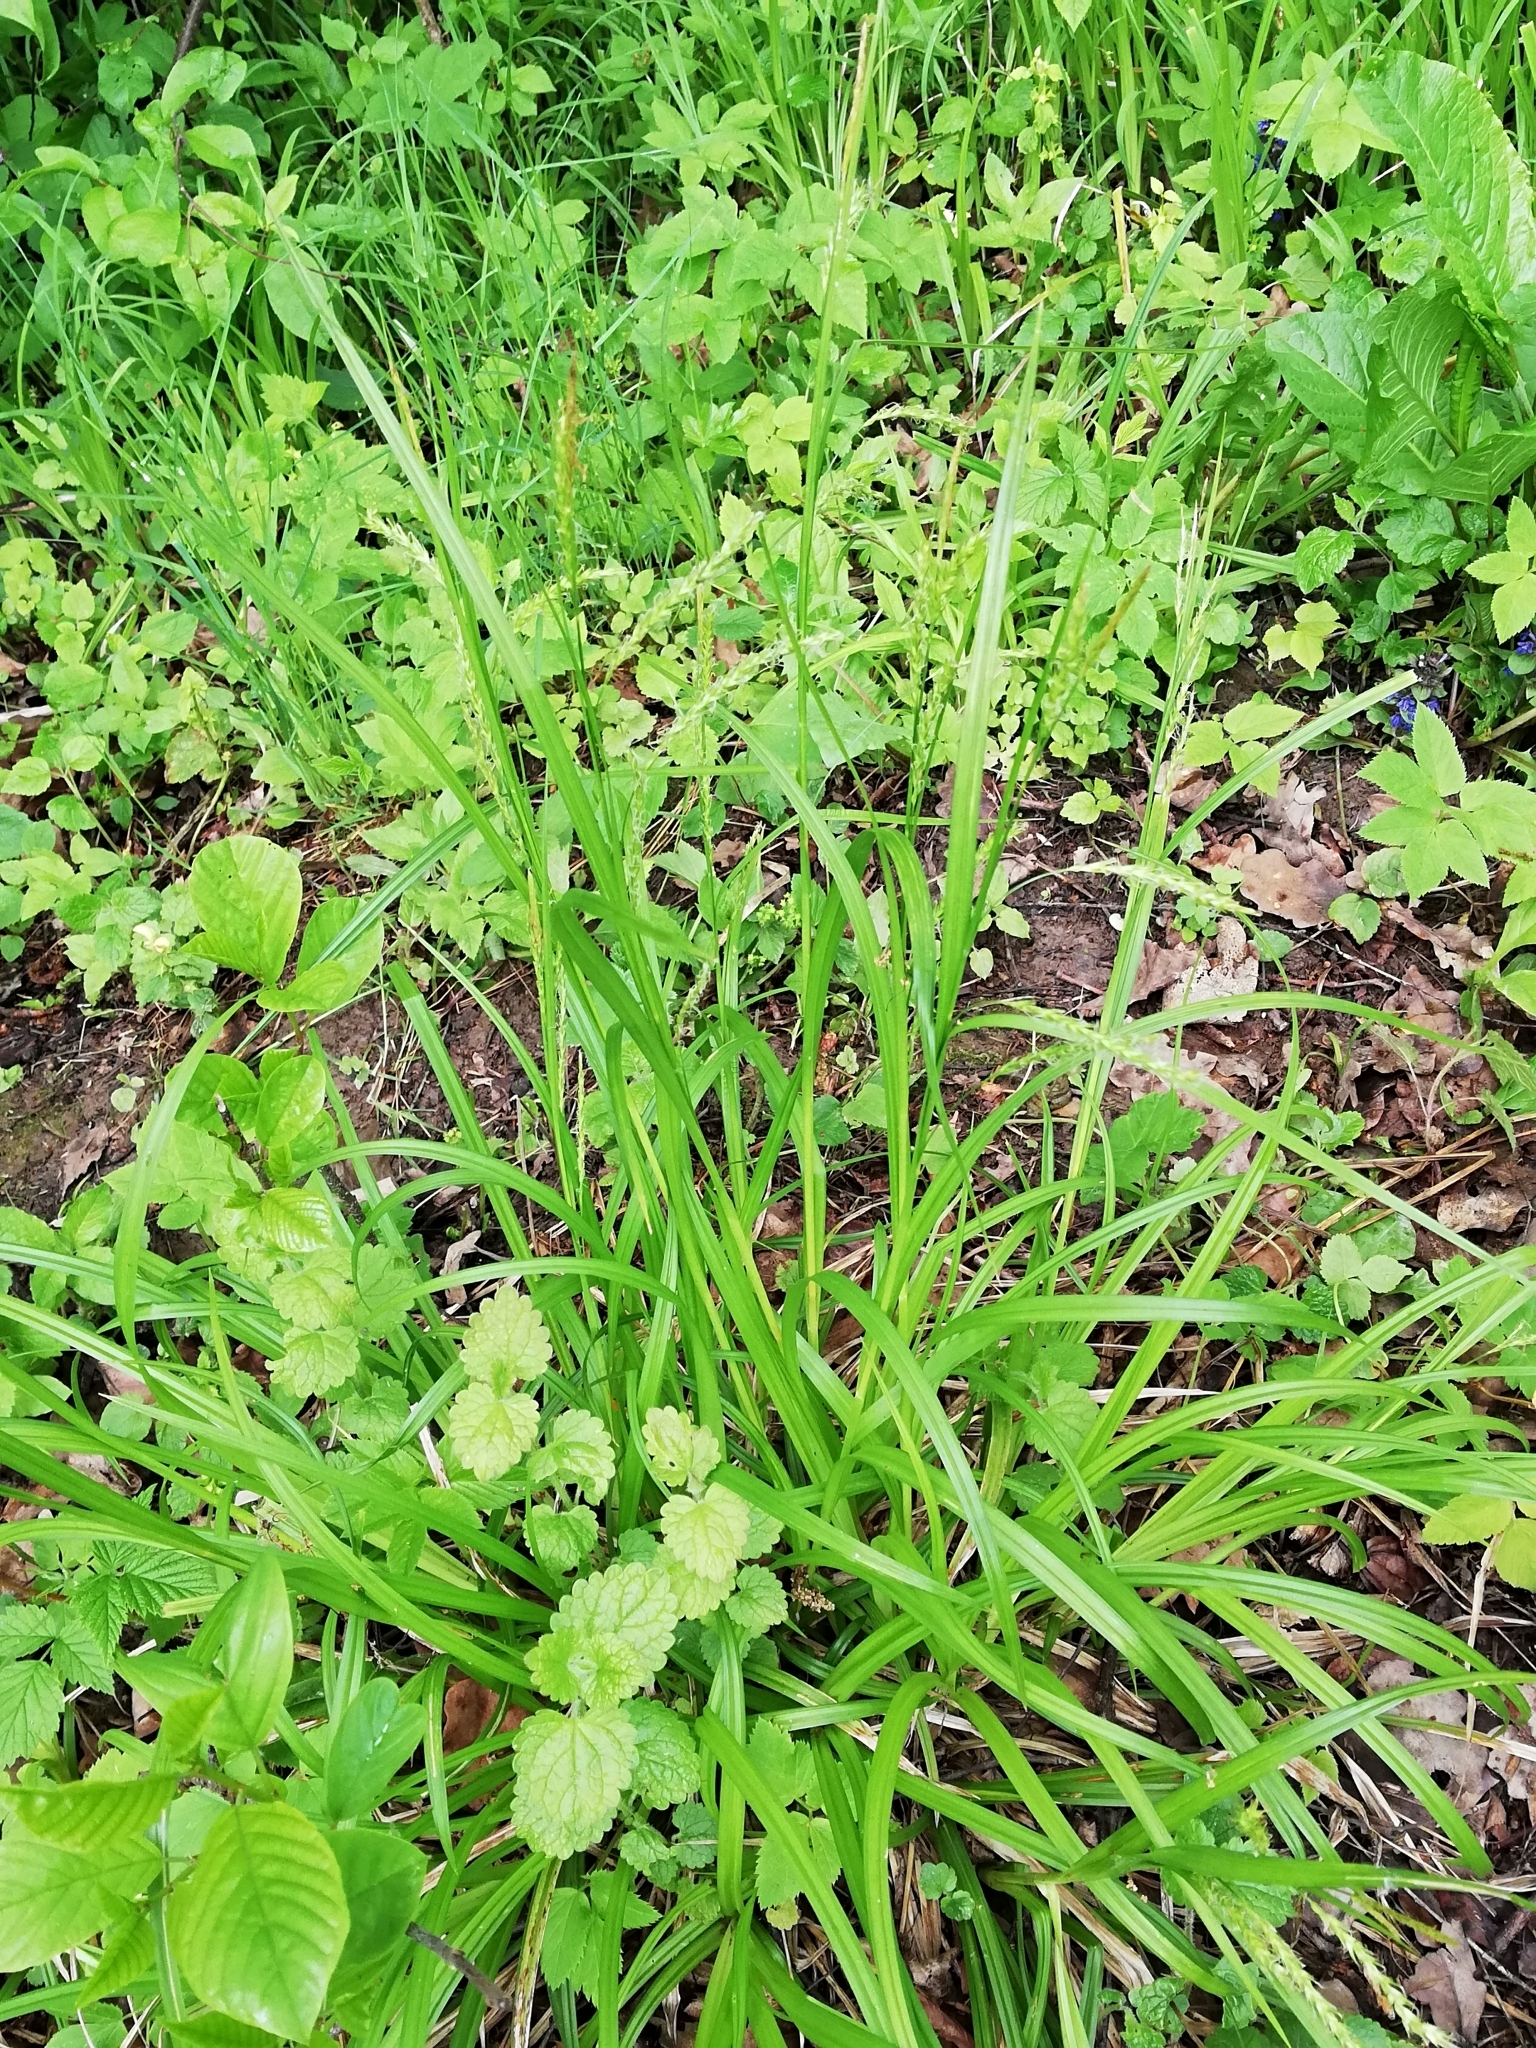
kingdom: Plantae
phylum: Tracheophyta
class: Liliopsida
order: Poales
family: Cyperaceae
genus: Carex
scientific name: Carex sylvatica
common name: Wood-sedge
